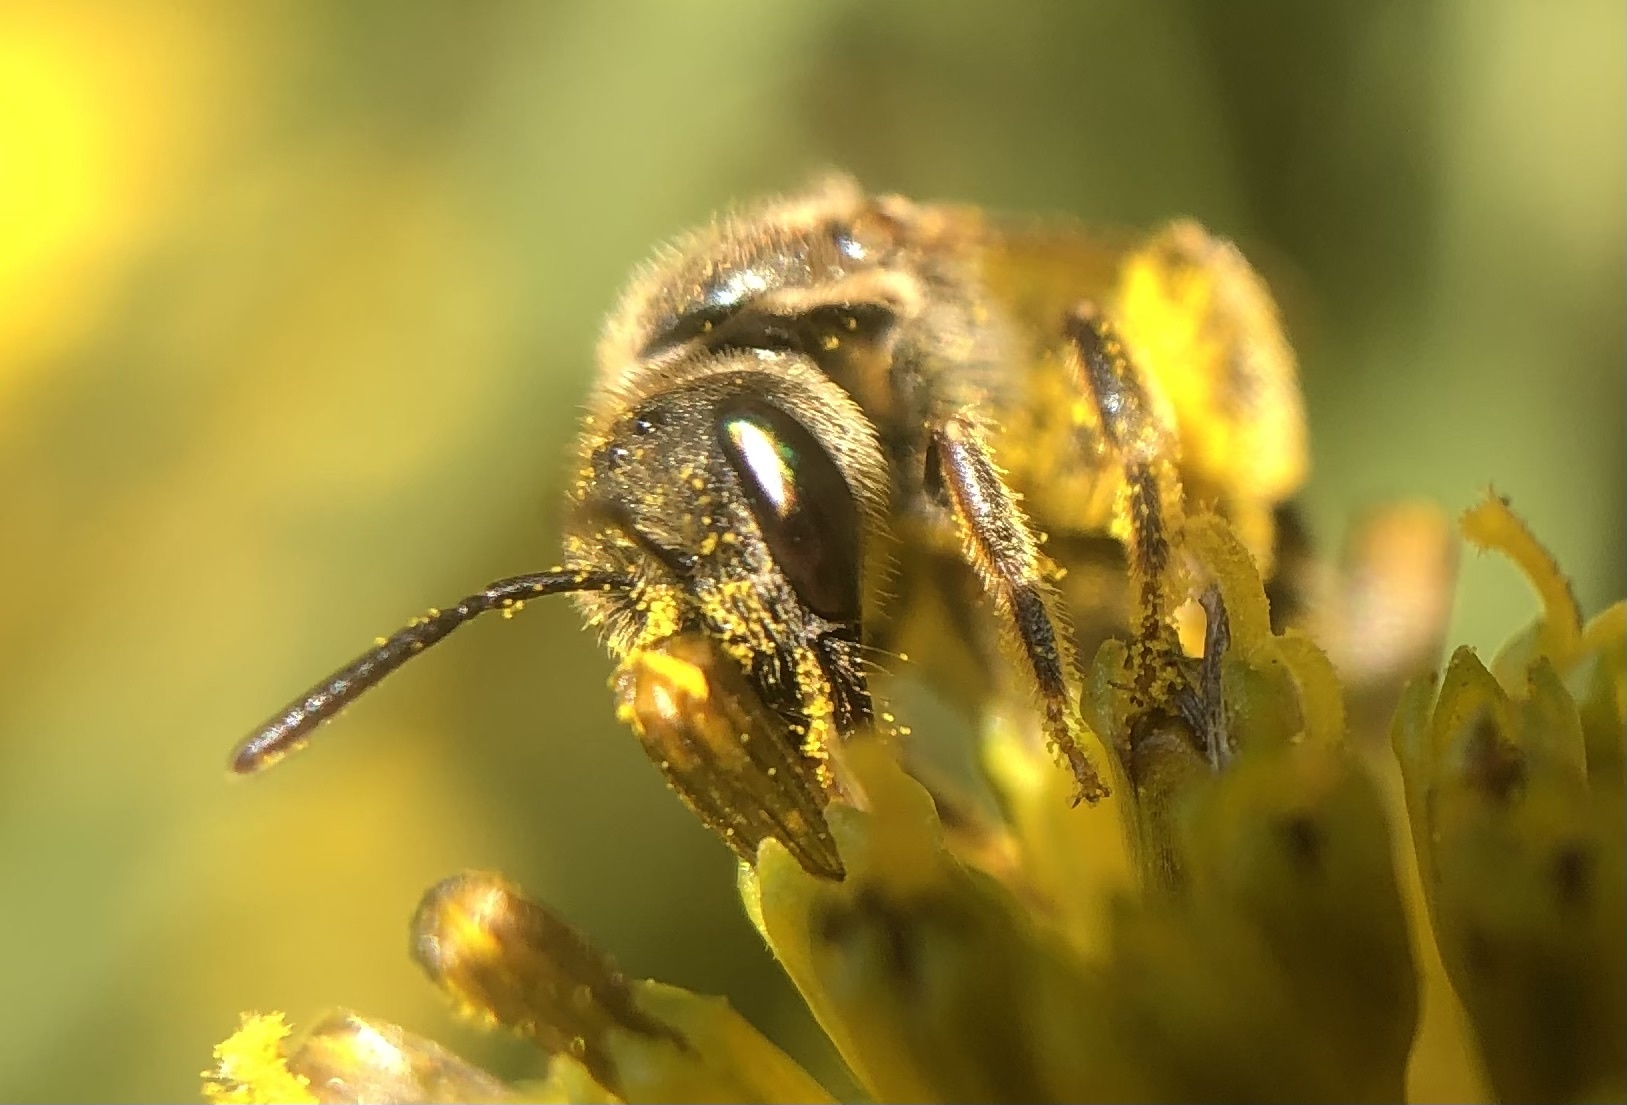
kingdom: Animalia
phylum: Arthropoda
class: Insecta
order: Hymenoptera
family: Halictidae
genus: Halictus
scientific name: Halictus confusus
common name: Southern bronze furrow bee
